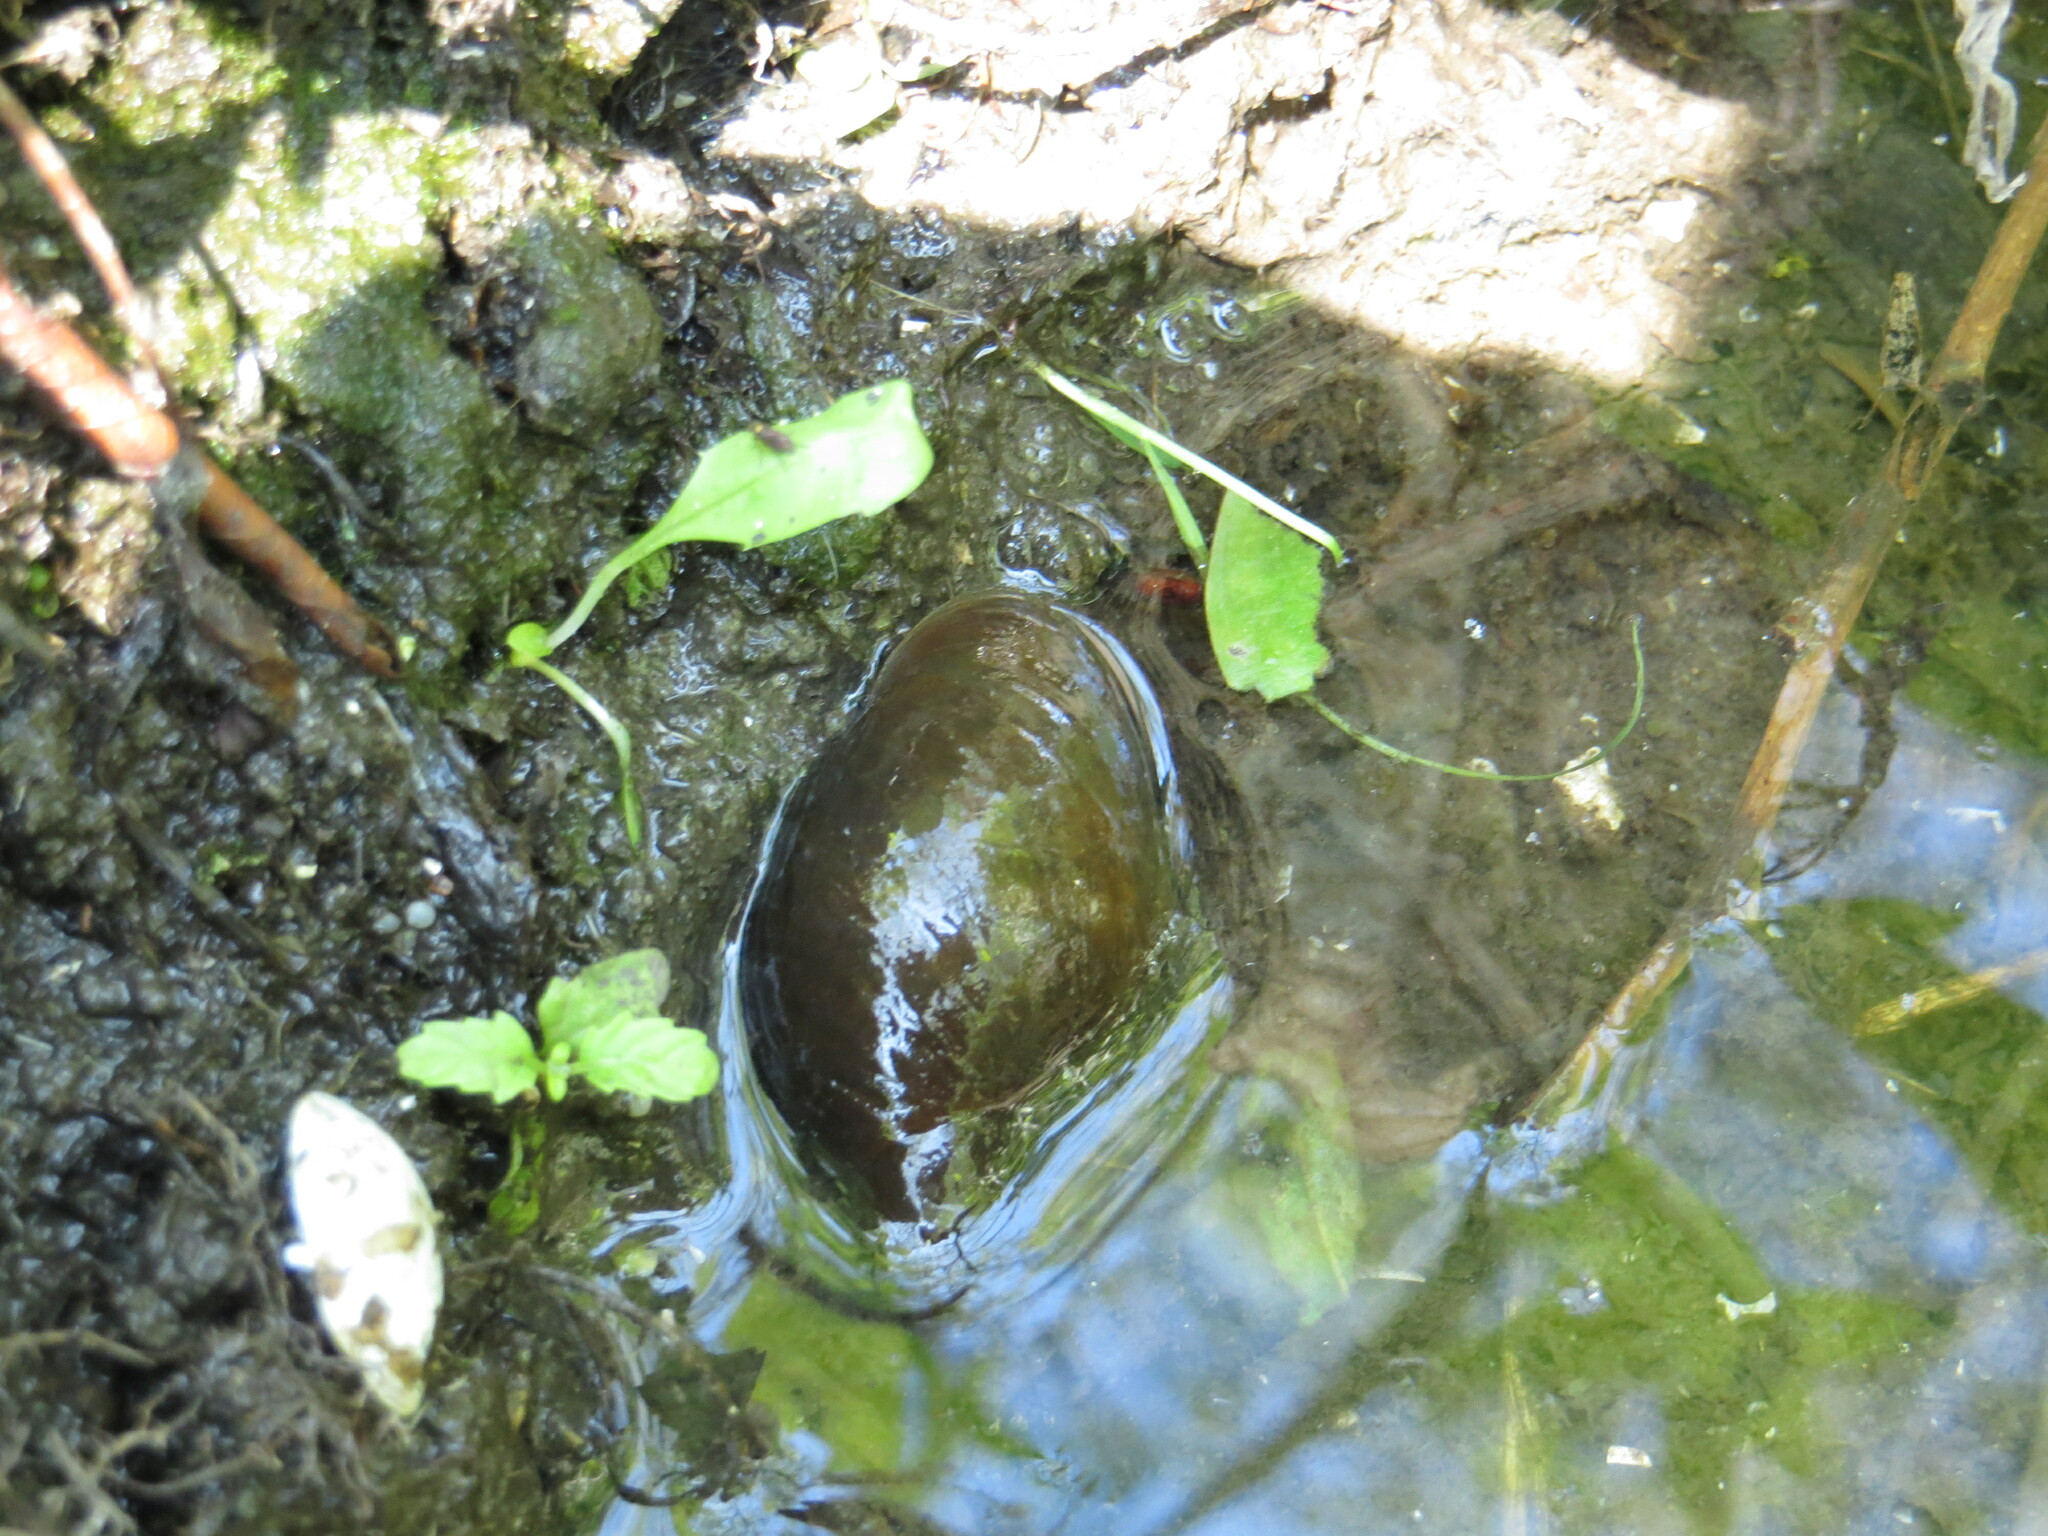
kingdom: Animalia
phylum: Mollusca
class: Gastropoda
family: Lymnaeidae
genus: Lymnaea
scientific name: Lymnaea stagnalis
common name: Great pond snail
